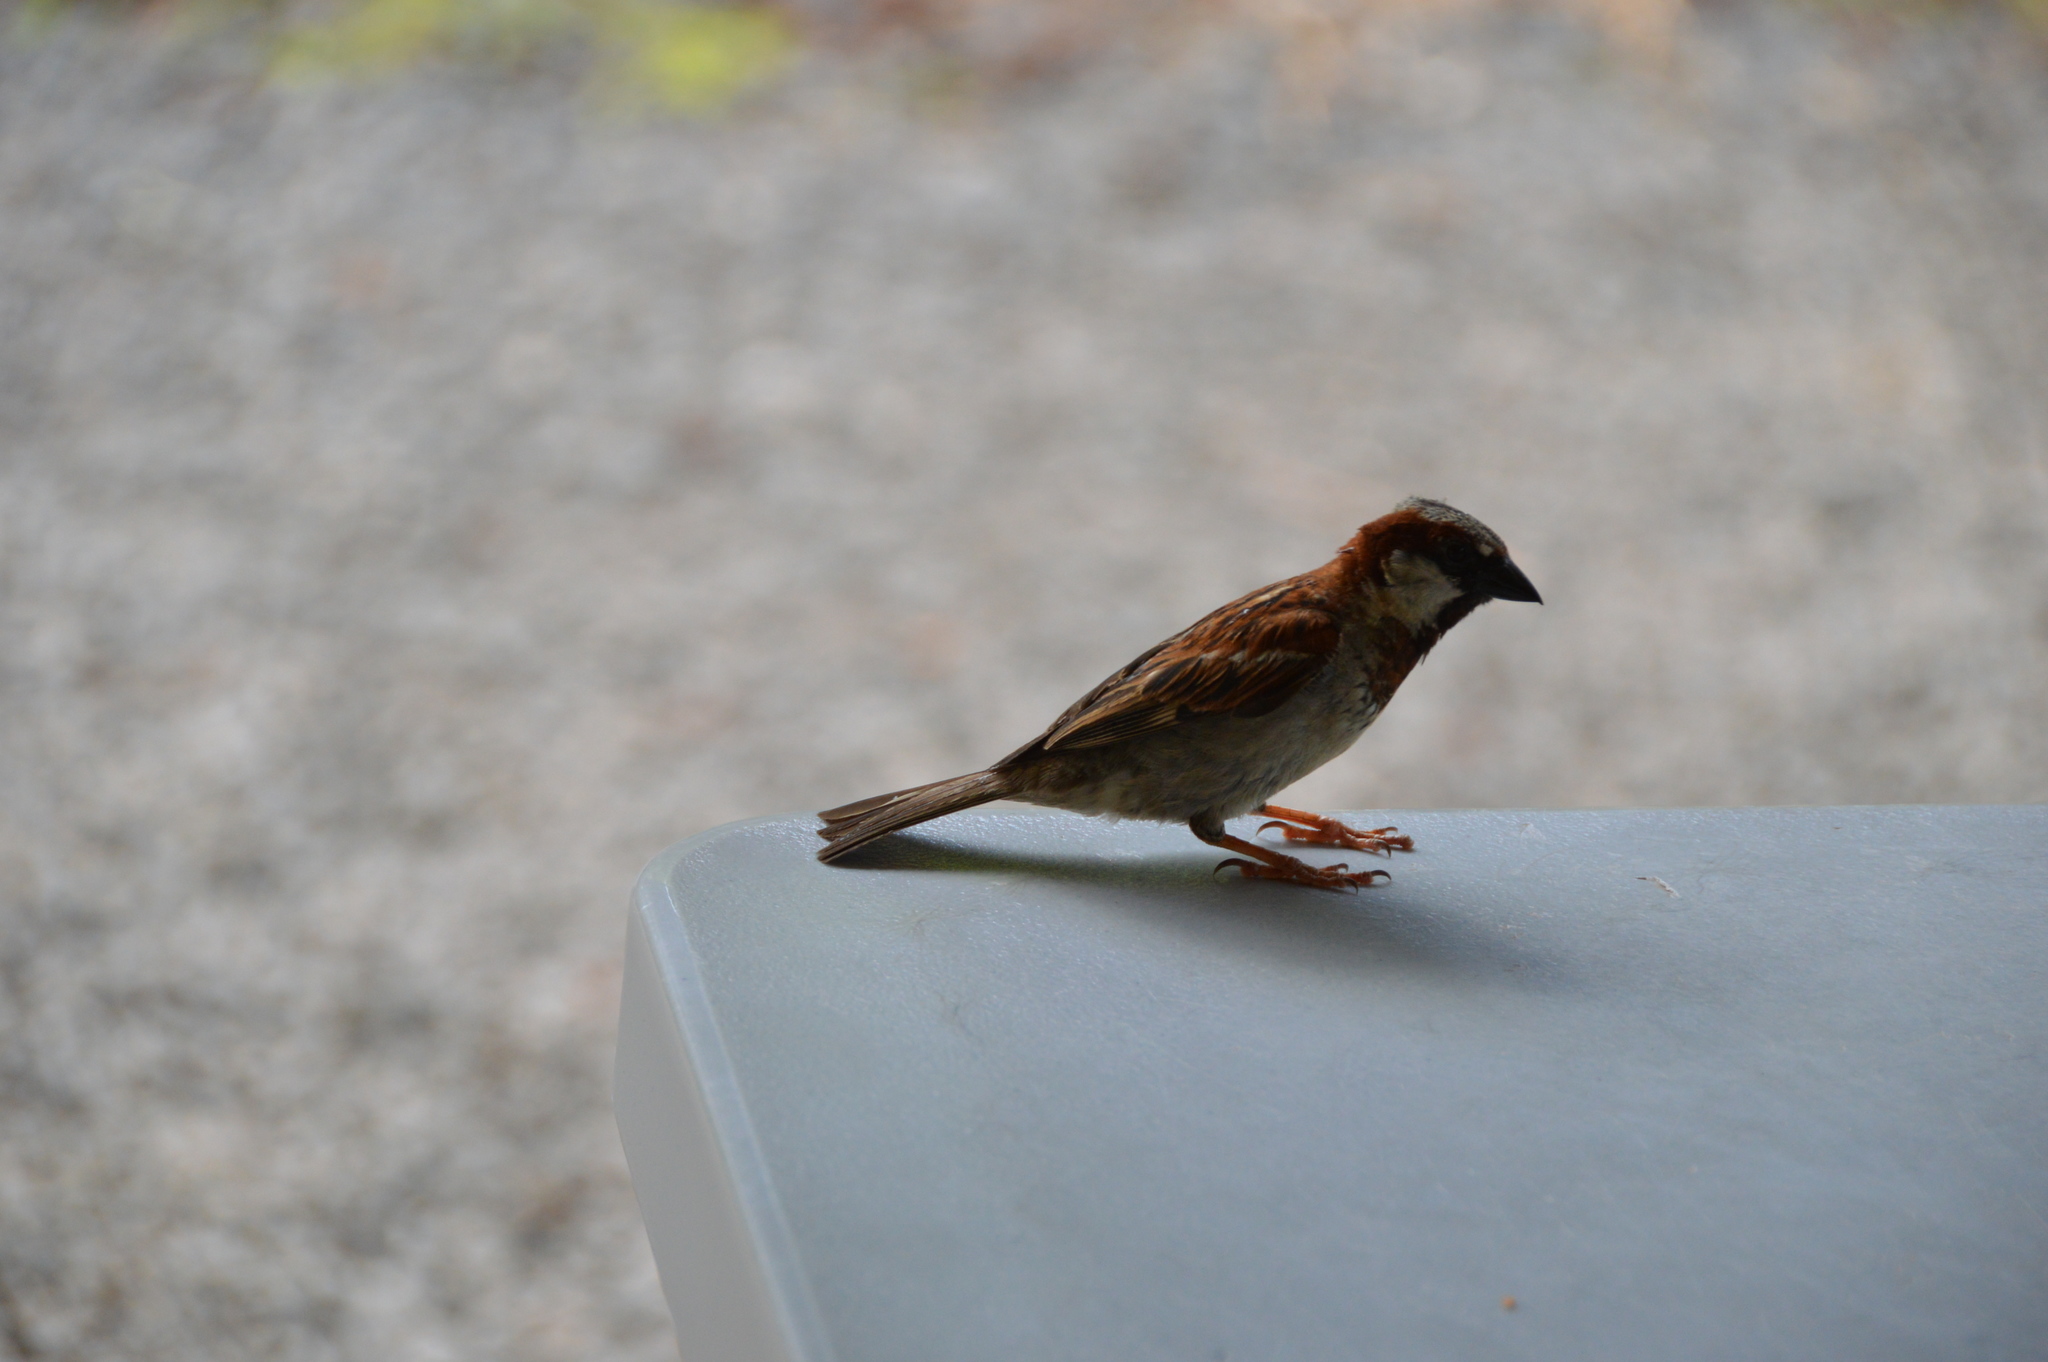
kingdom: Animalia
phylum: Chordata
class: Aves
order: Passeriformes
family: Passeridae
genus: Passer
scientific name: Passer domesticus
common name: House sparrow
